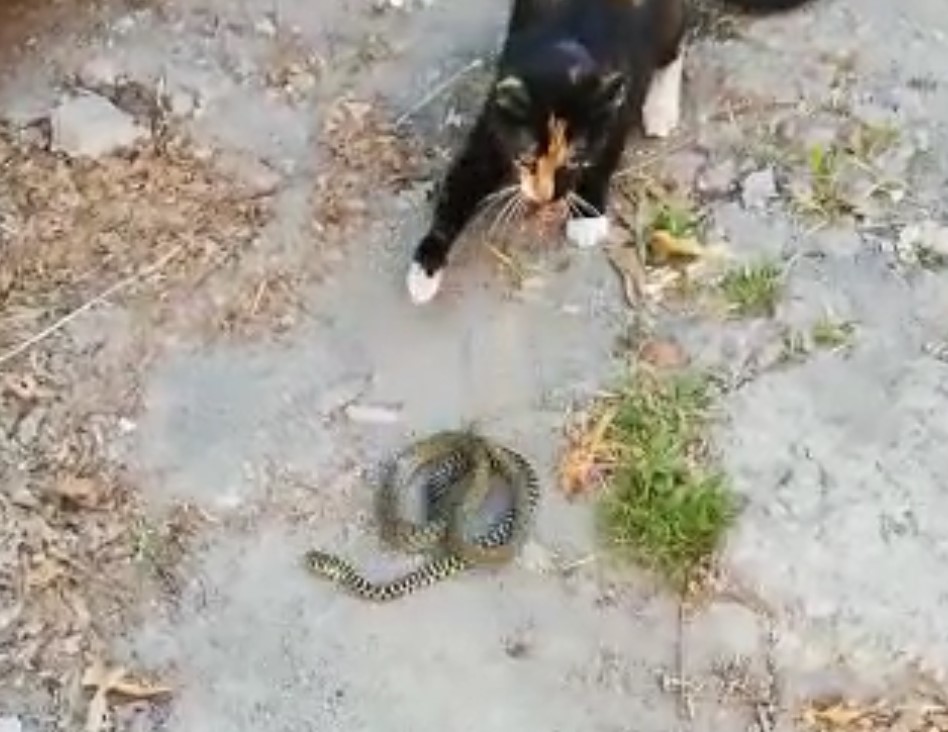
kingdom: Animalia
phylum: Chordata
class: Squamata
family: Colubridae
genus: Hierophis
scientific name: Hierophis viridiflavus
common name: Green whip snake
